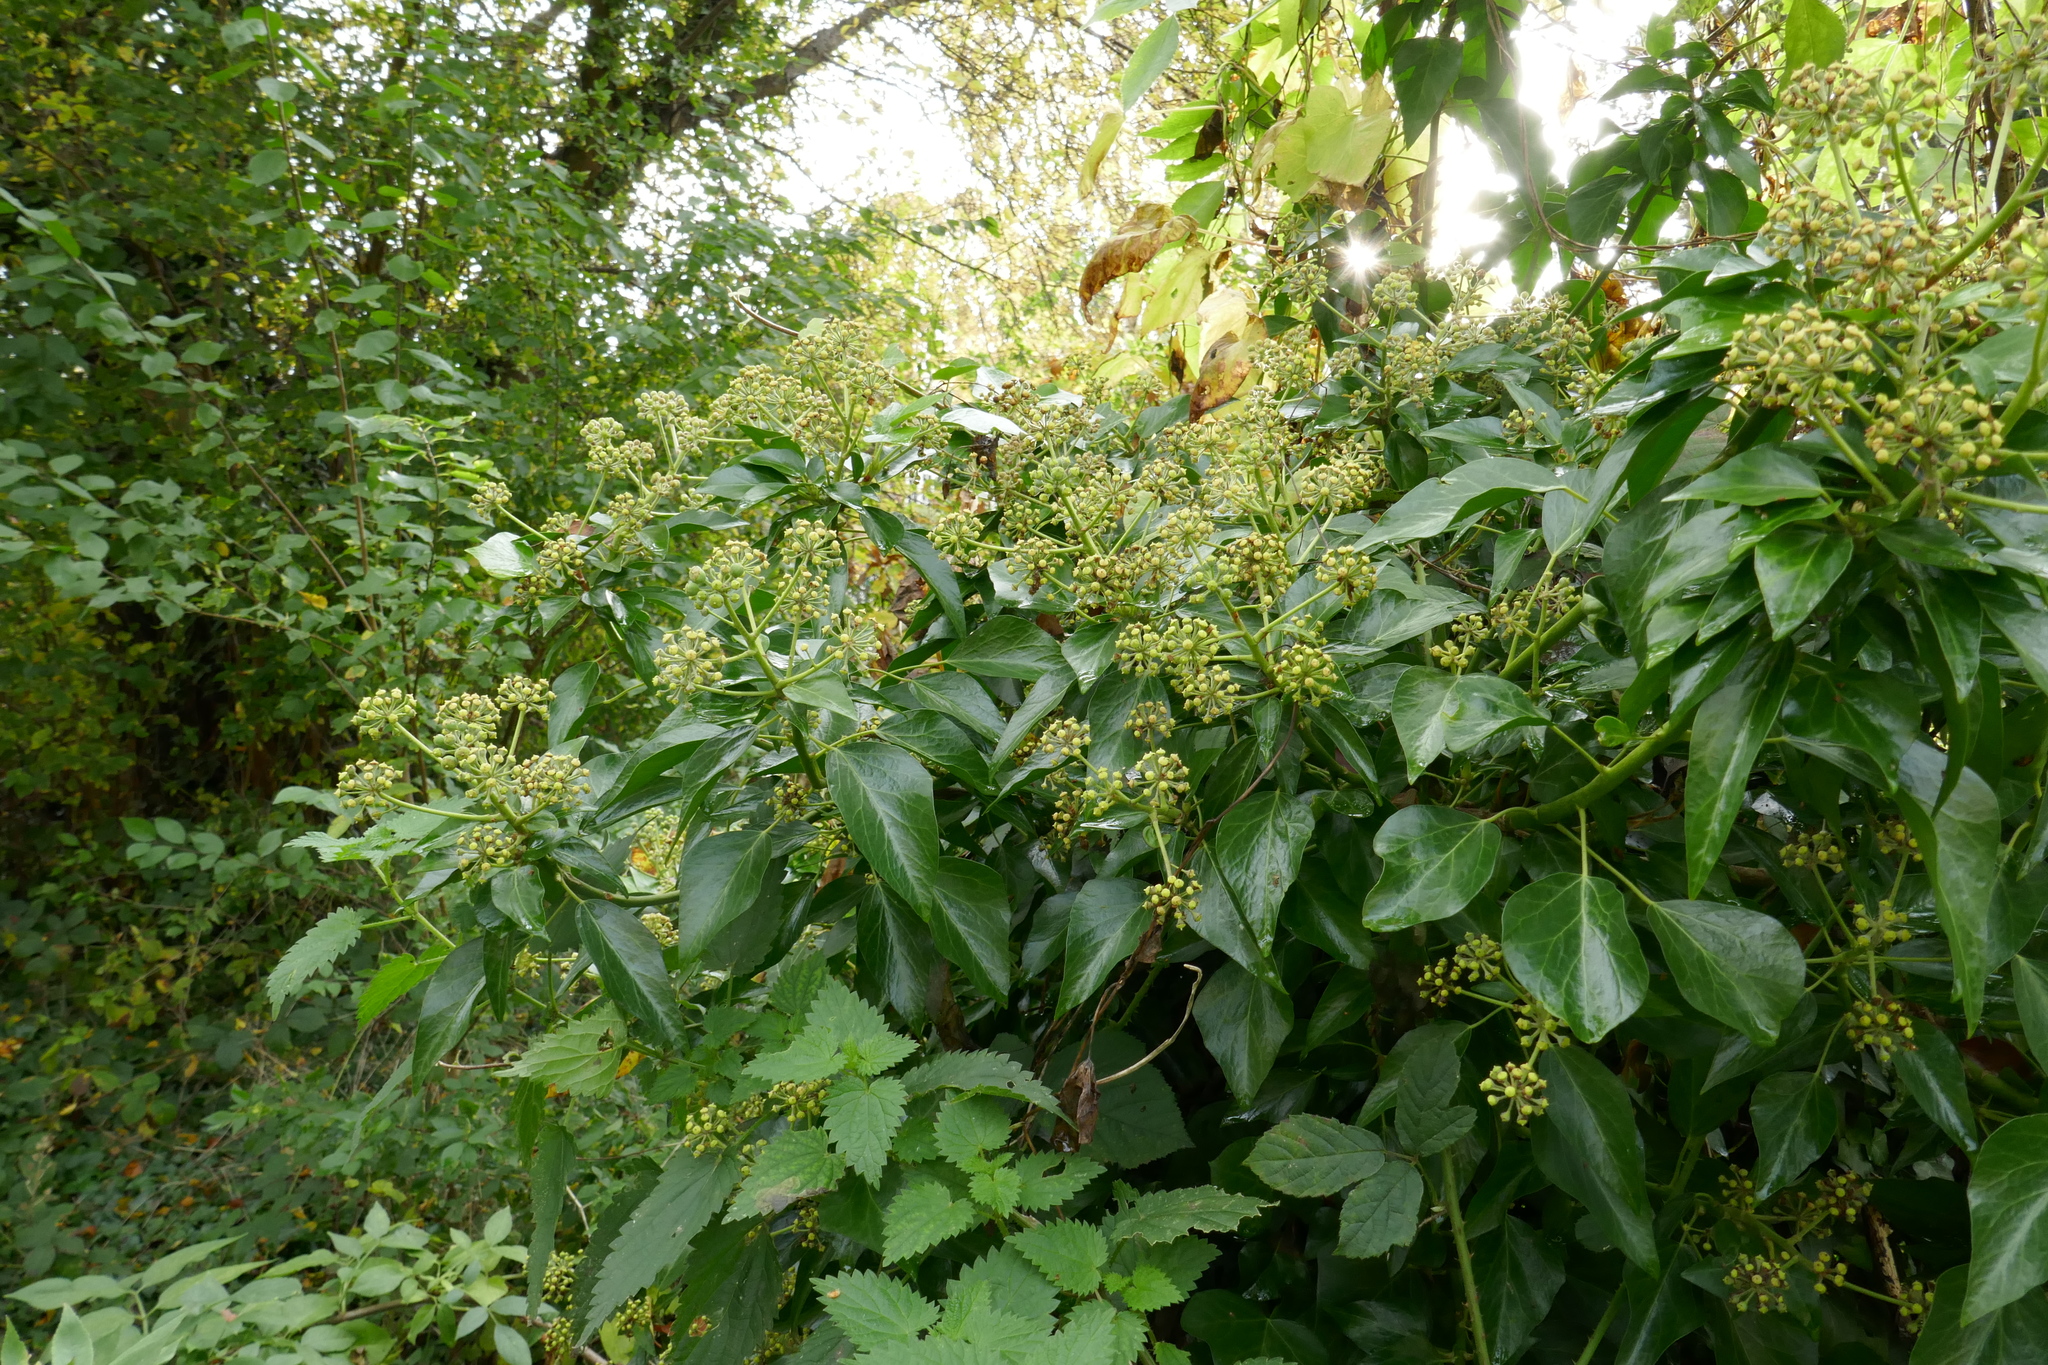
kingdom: Plantae
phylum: Tracheophyta
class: Magnoliopsida
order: Apiales
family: Araliaceae
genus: Hedera
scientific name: Hedera helix
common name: Ivy
